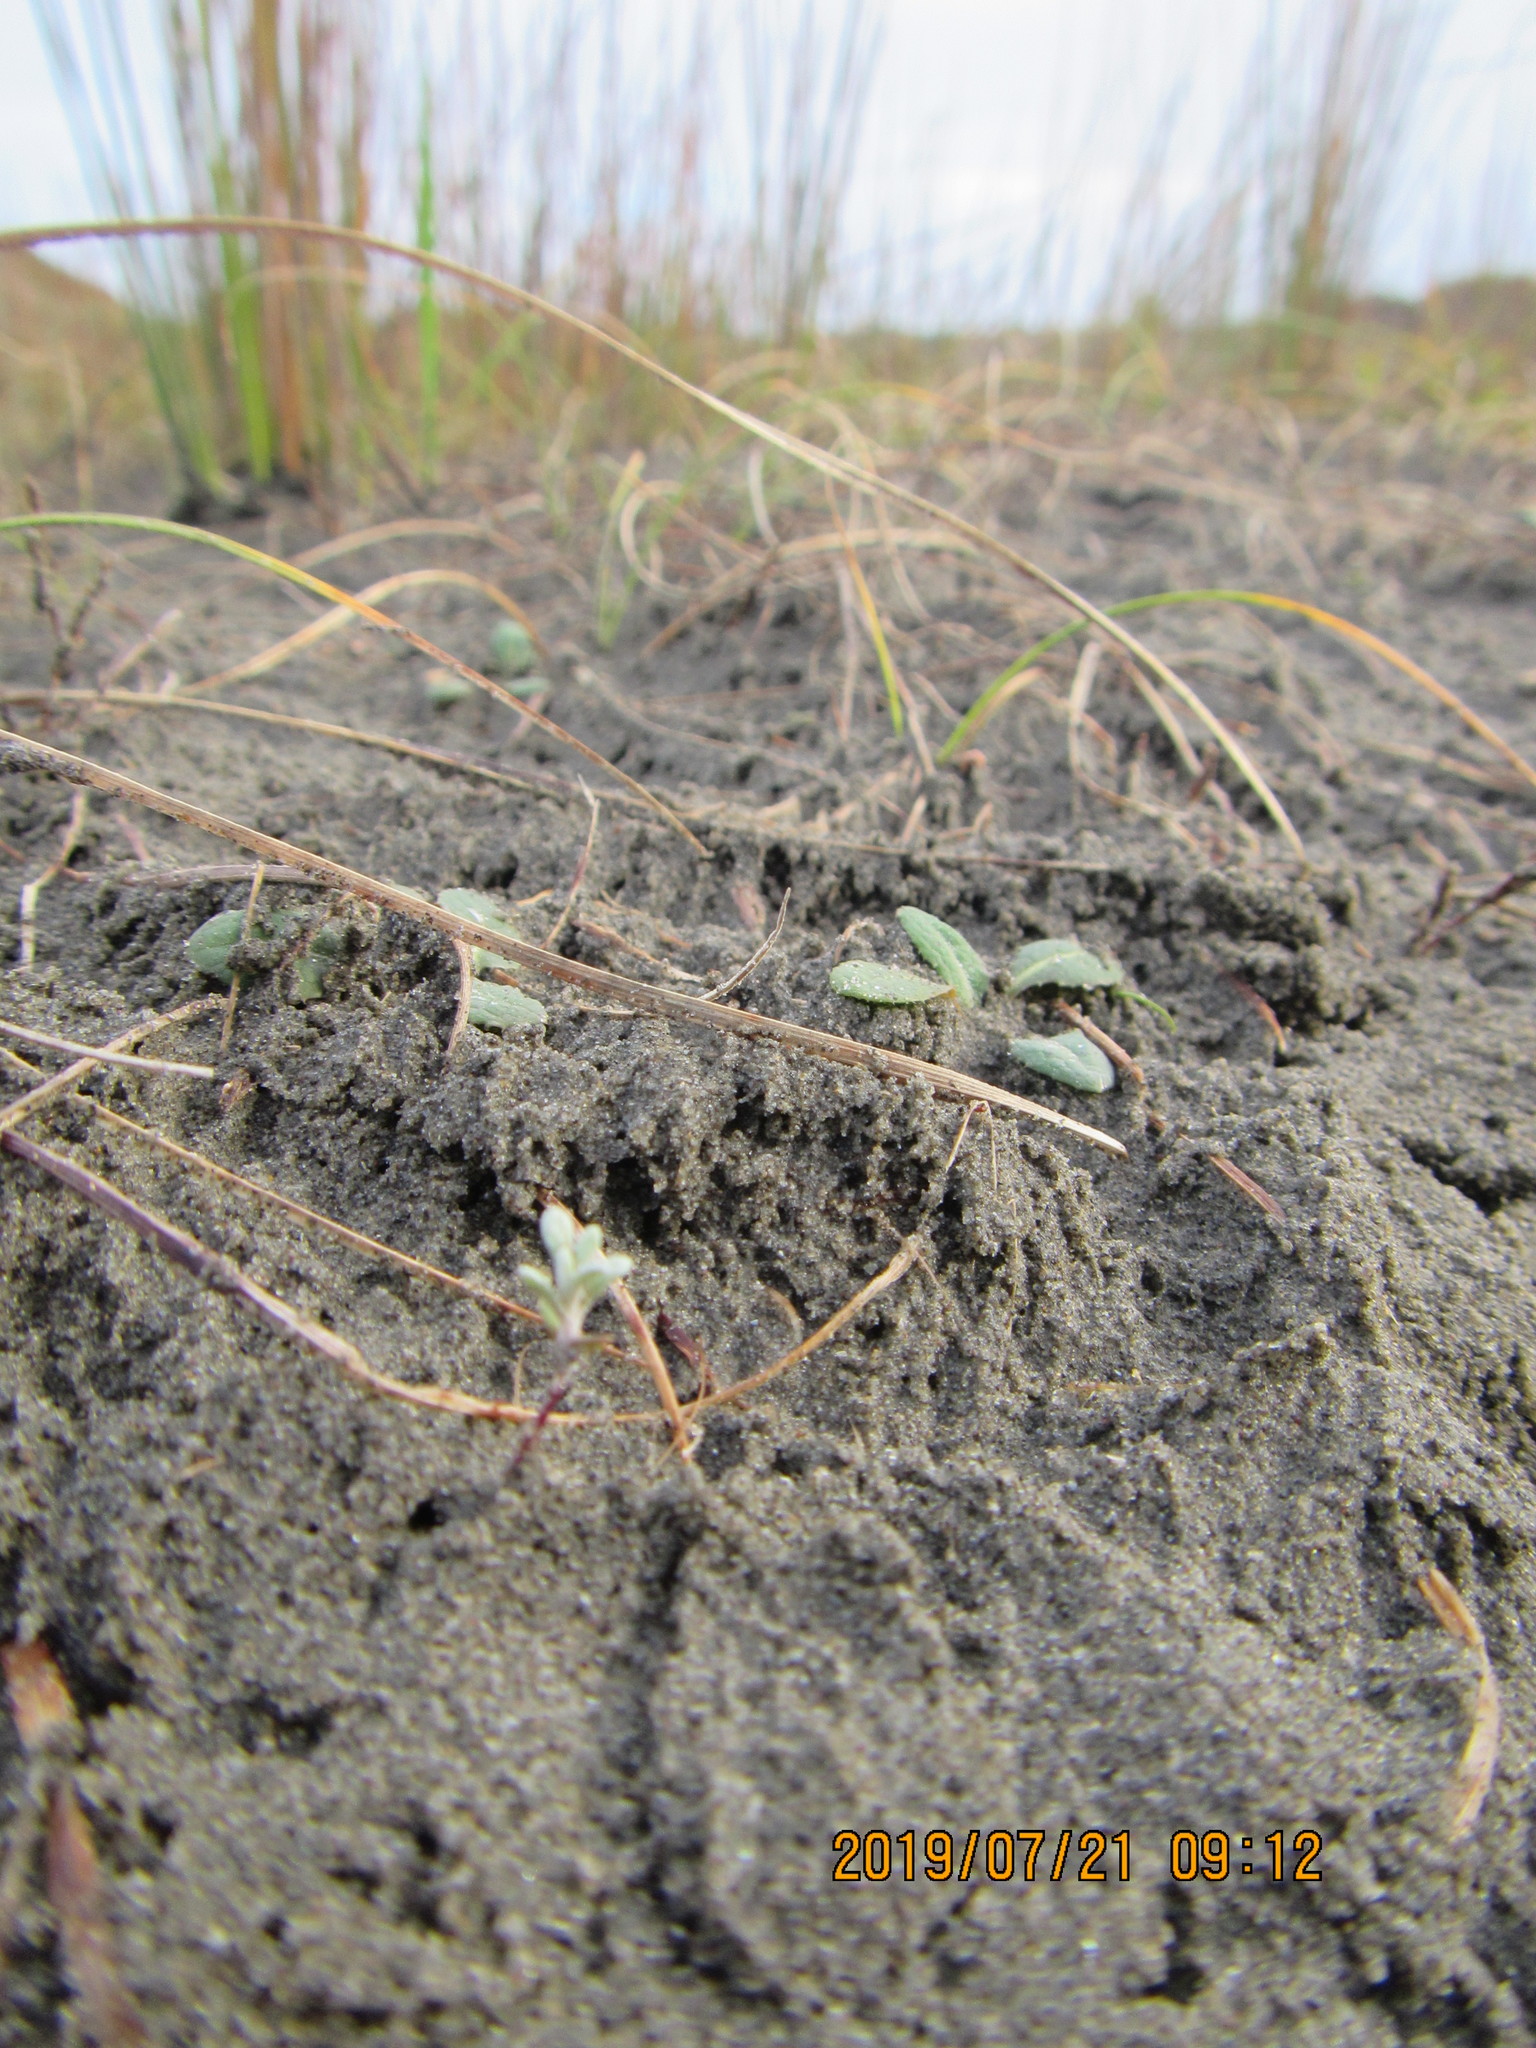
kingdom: Plantae
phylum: Tracheophyta
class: Magnoliopsida
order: Asterales
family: Asteraceae
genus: Ozothamnus
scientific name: Ozothamnus leptophyllus
